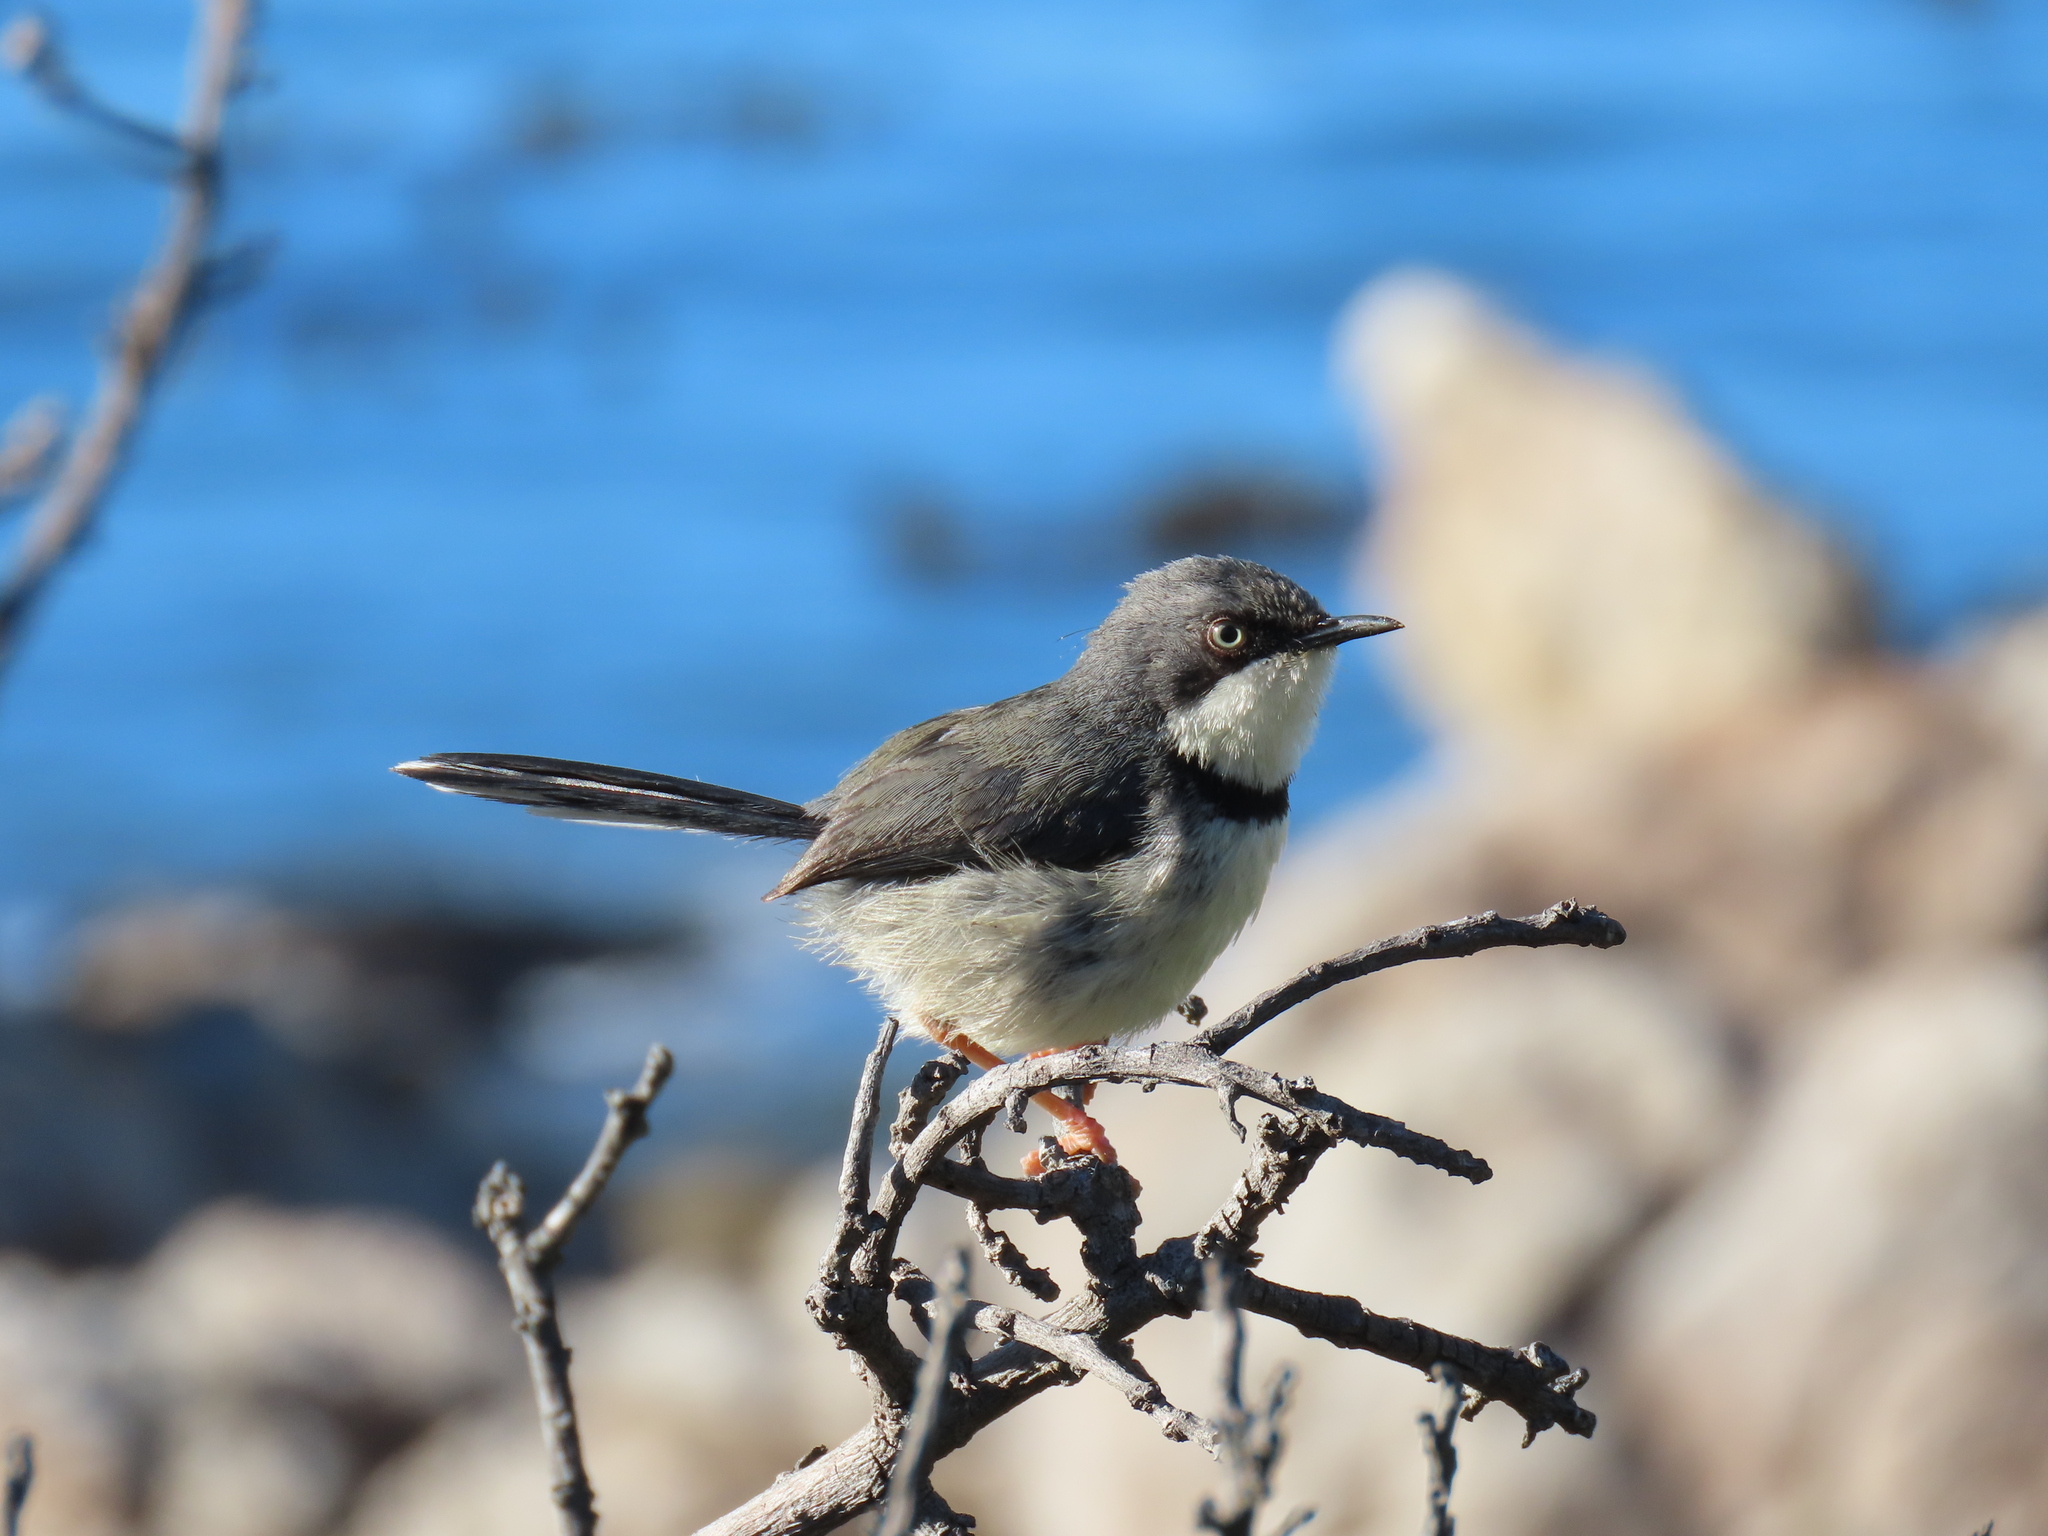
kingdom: Animalia
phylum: Chordata
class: Aves
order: Passeriformes
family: Cisticolidae
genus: Apalis
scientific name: Apalis thoracica
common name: Bar-throated apalis
